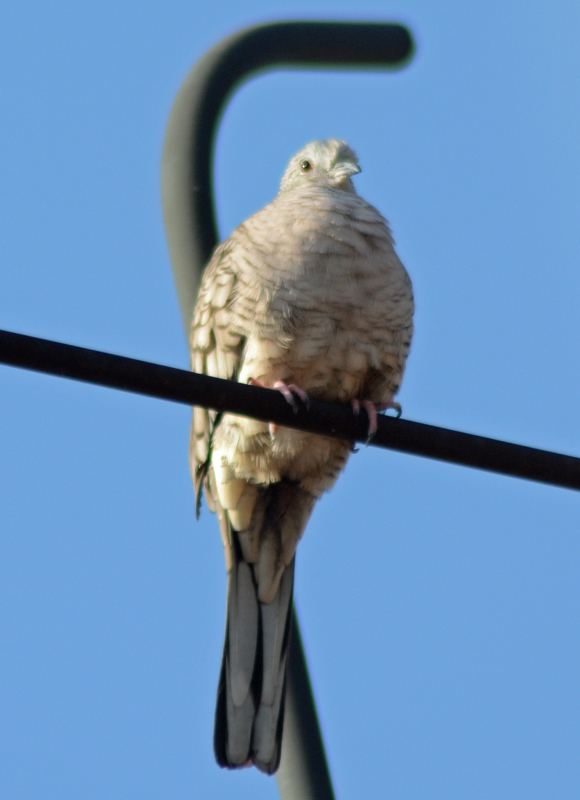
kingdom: Animalia
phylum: Chordata
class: Aves
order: Columbiformes
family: Columbidae
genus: Columbina
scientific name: Columbina inca
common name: Inca dove
